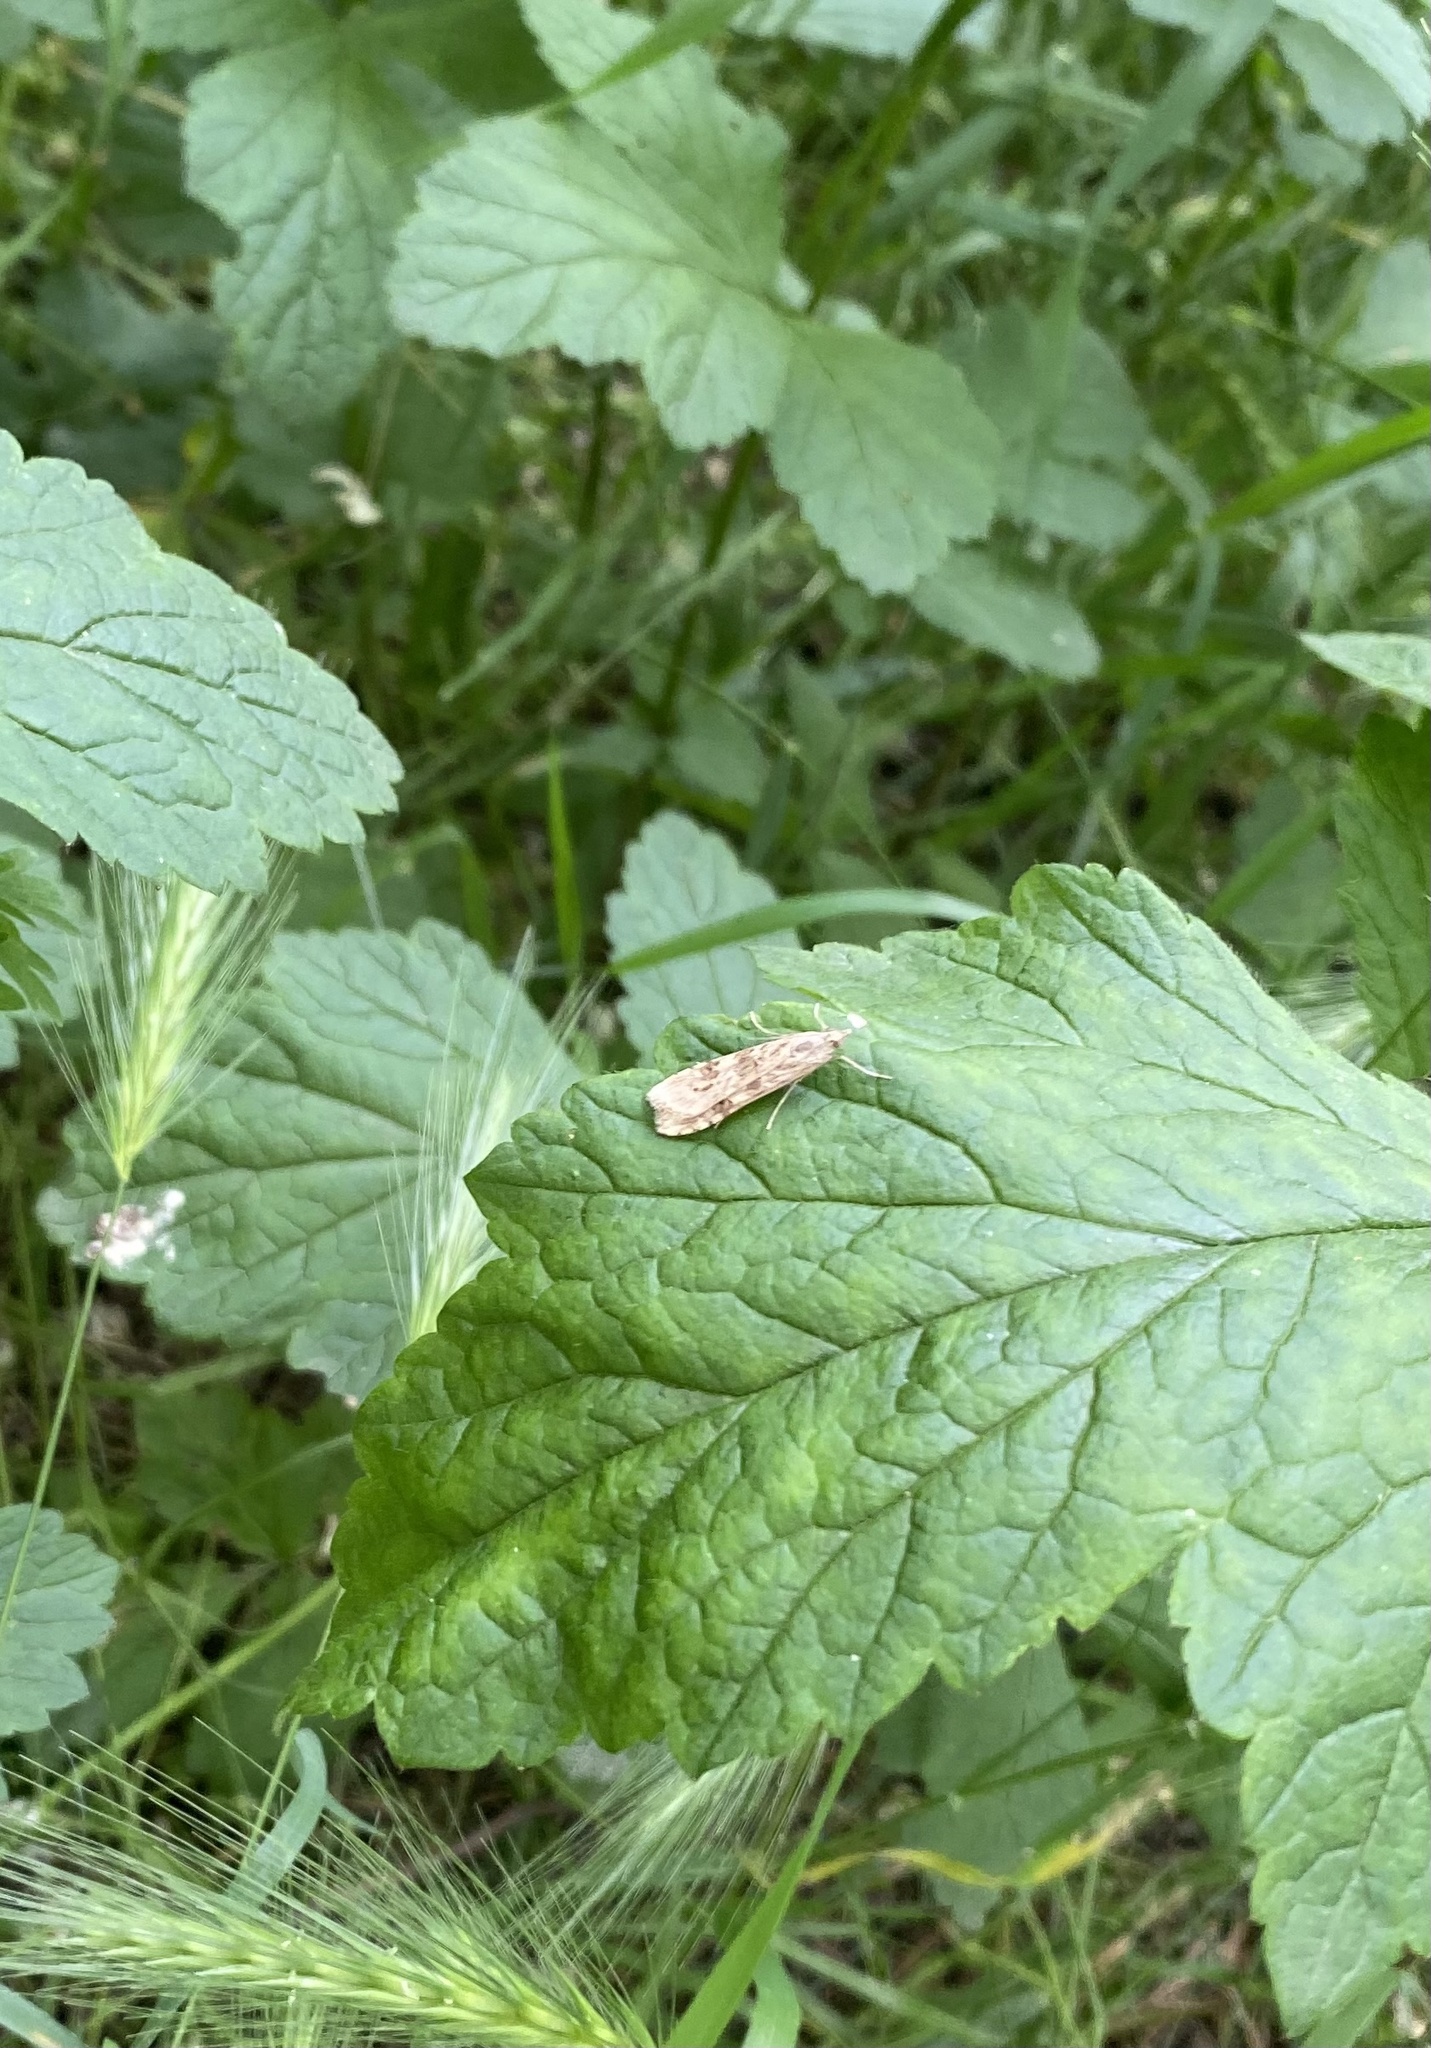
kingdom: Animalia
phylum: Arthropoda
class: Insecta
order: Lepidoptera
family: Crambidae
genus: Nomophila
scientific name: Nomophila noctuella
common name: Rush veneer
